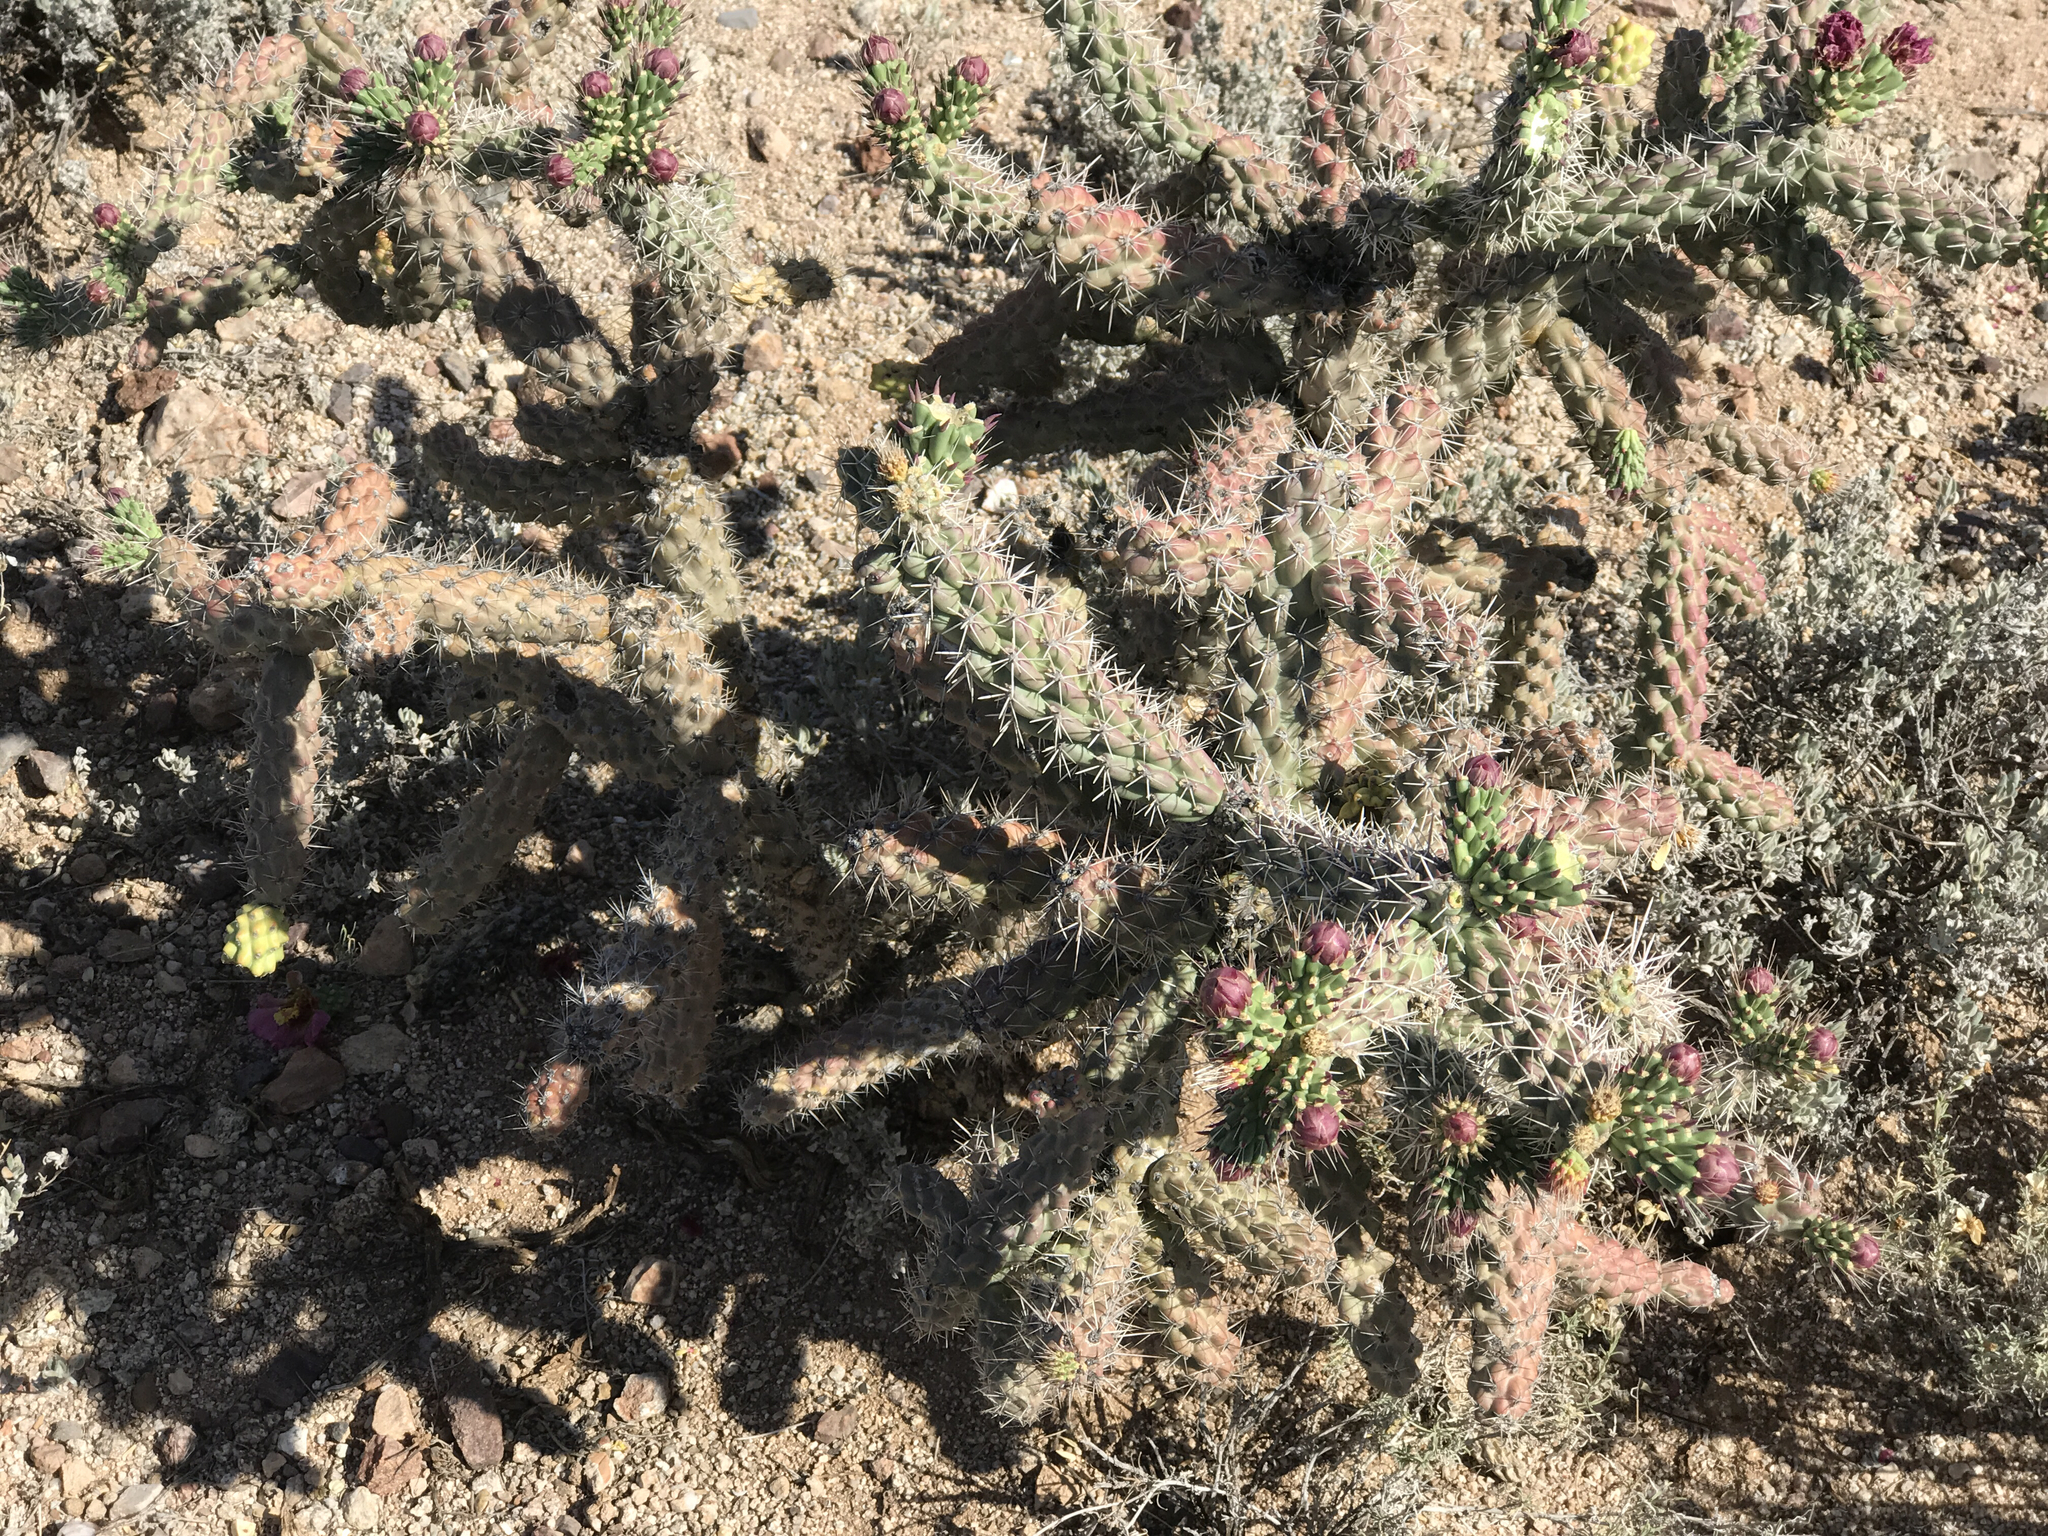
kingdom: Plantae
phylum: Tracheophyta
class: Magnoliopsida
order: Caryophyllales
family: Cactaceae
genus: Cylindropuntia
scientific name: Cylindropuntia fulgida
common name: Jumping cholla
